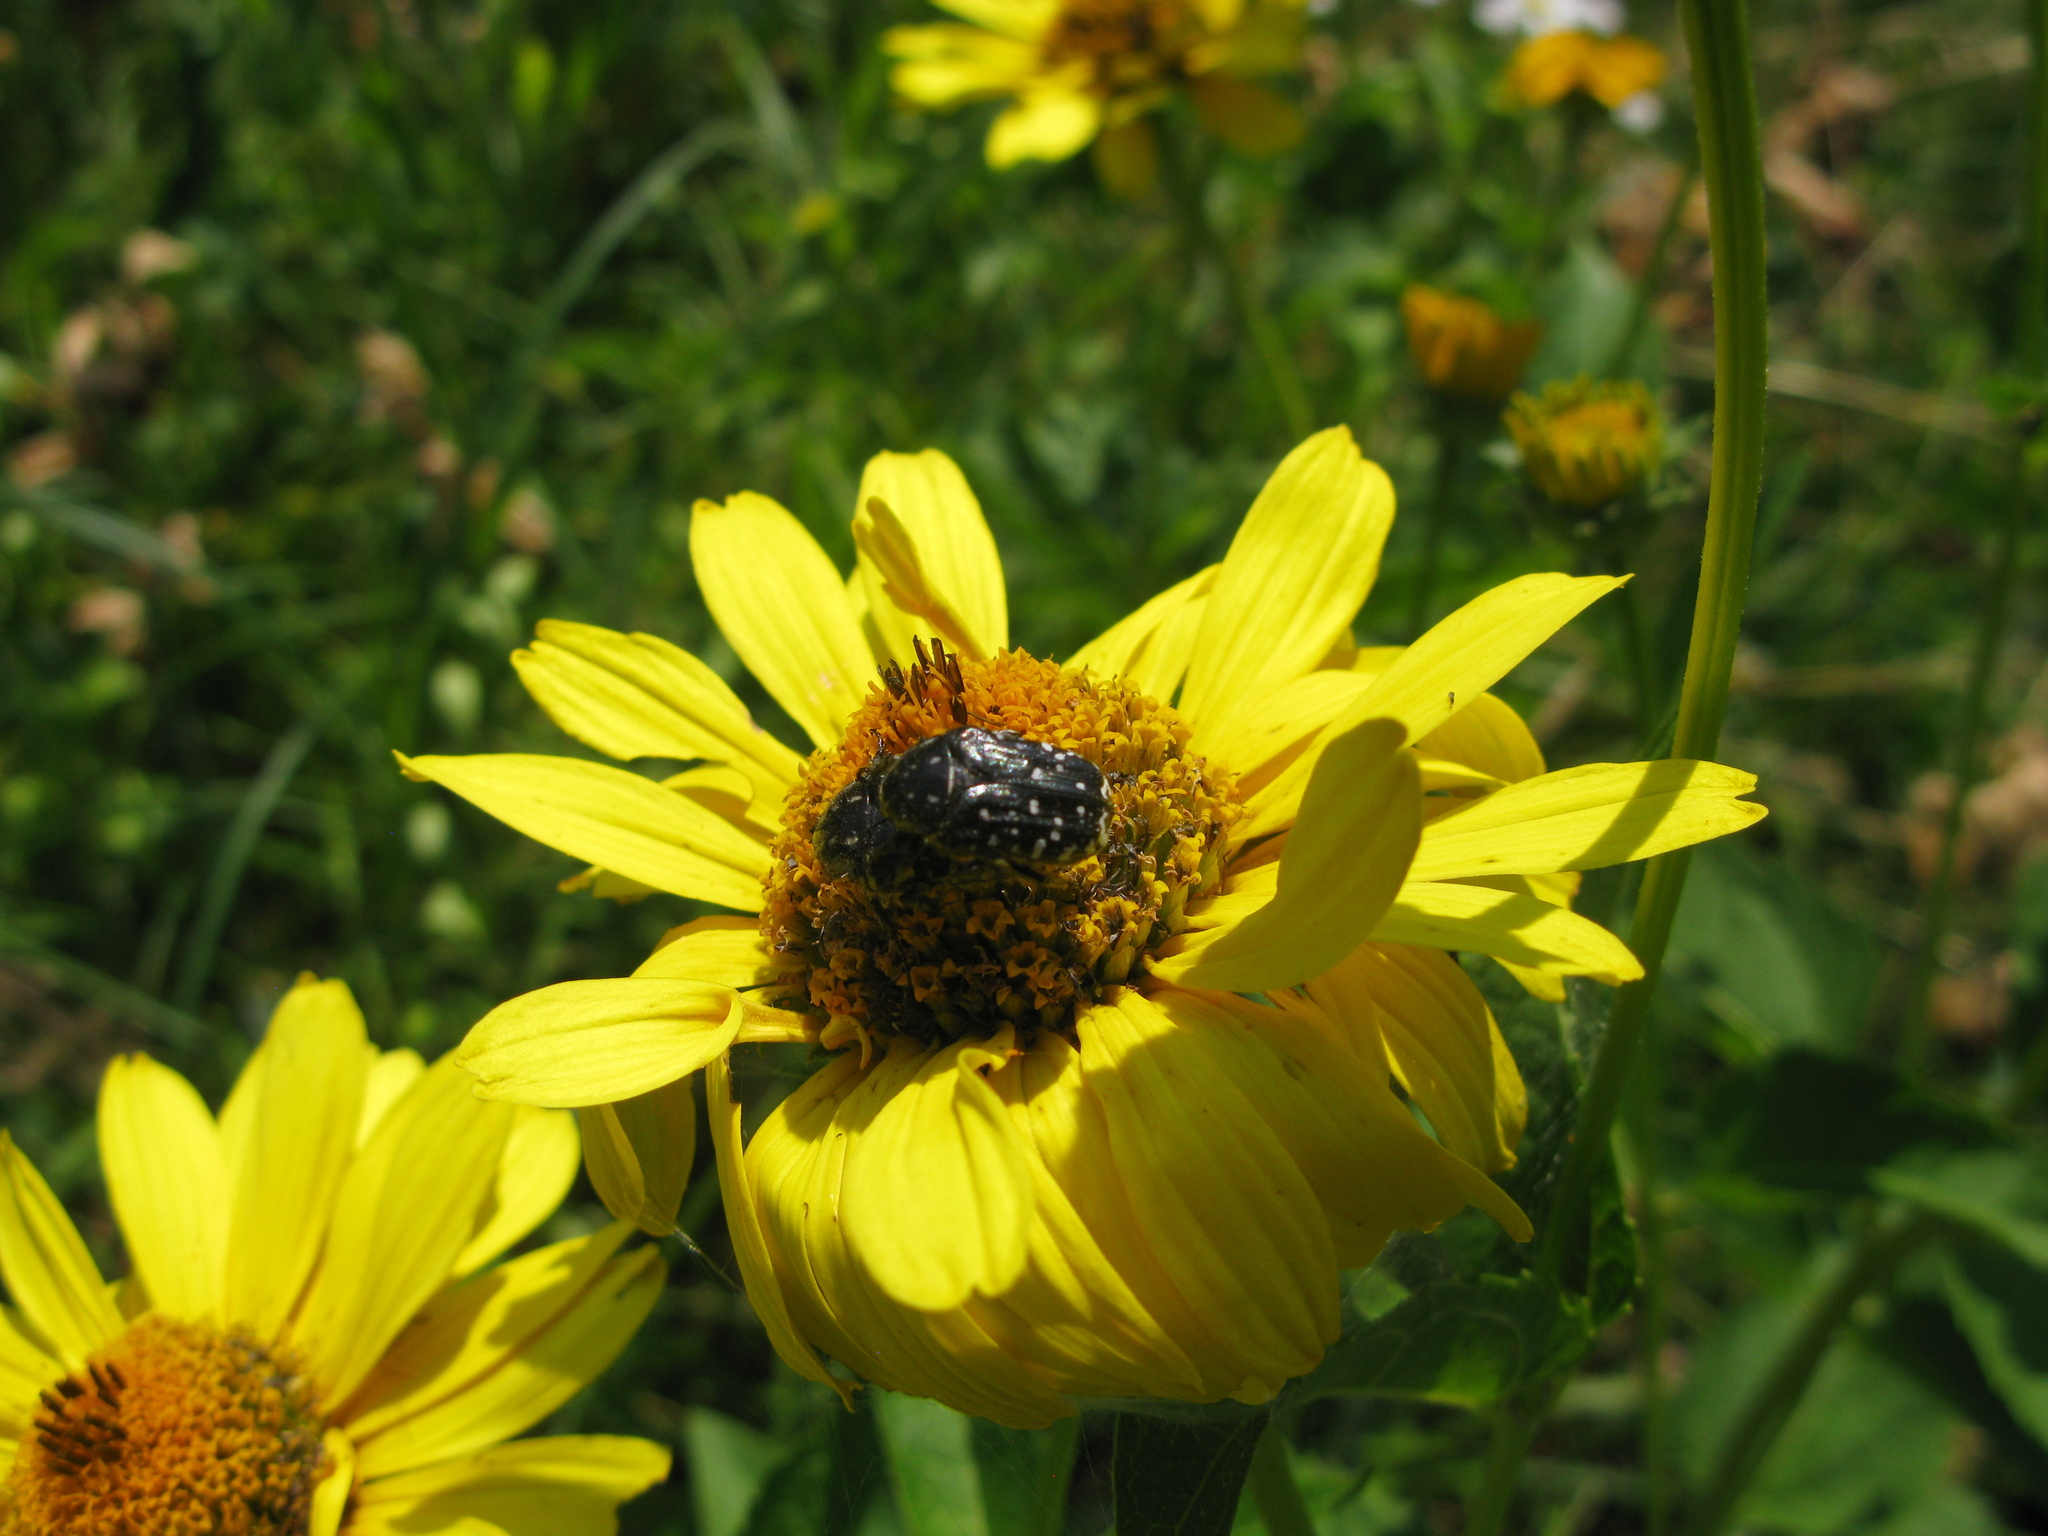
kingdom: Animalia
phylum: Arthropoda
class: Insecta
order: Coleoptera
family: Scarabaeidae
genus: Oxythyrea
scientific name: Oxythyrea funesta
